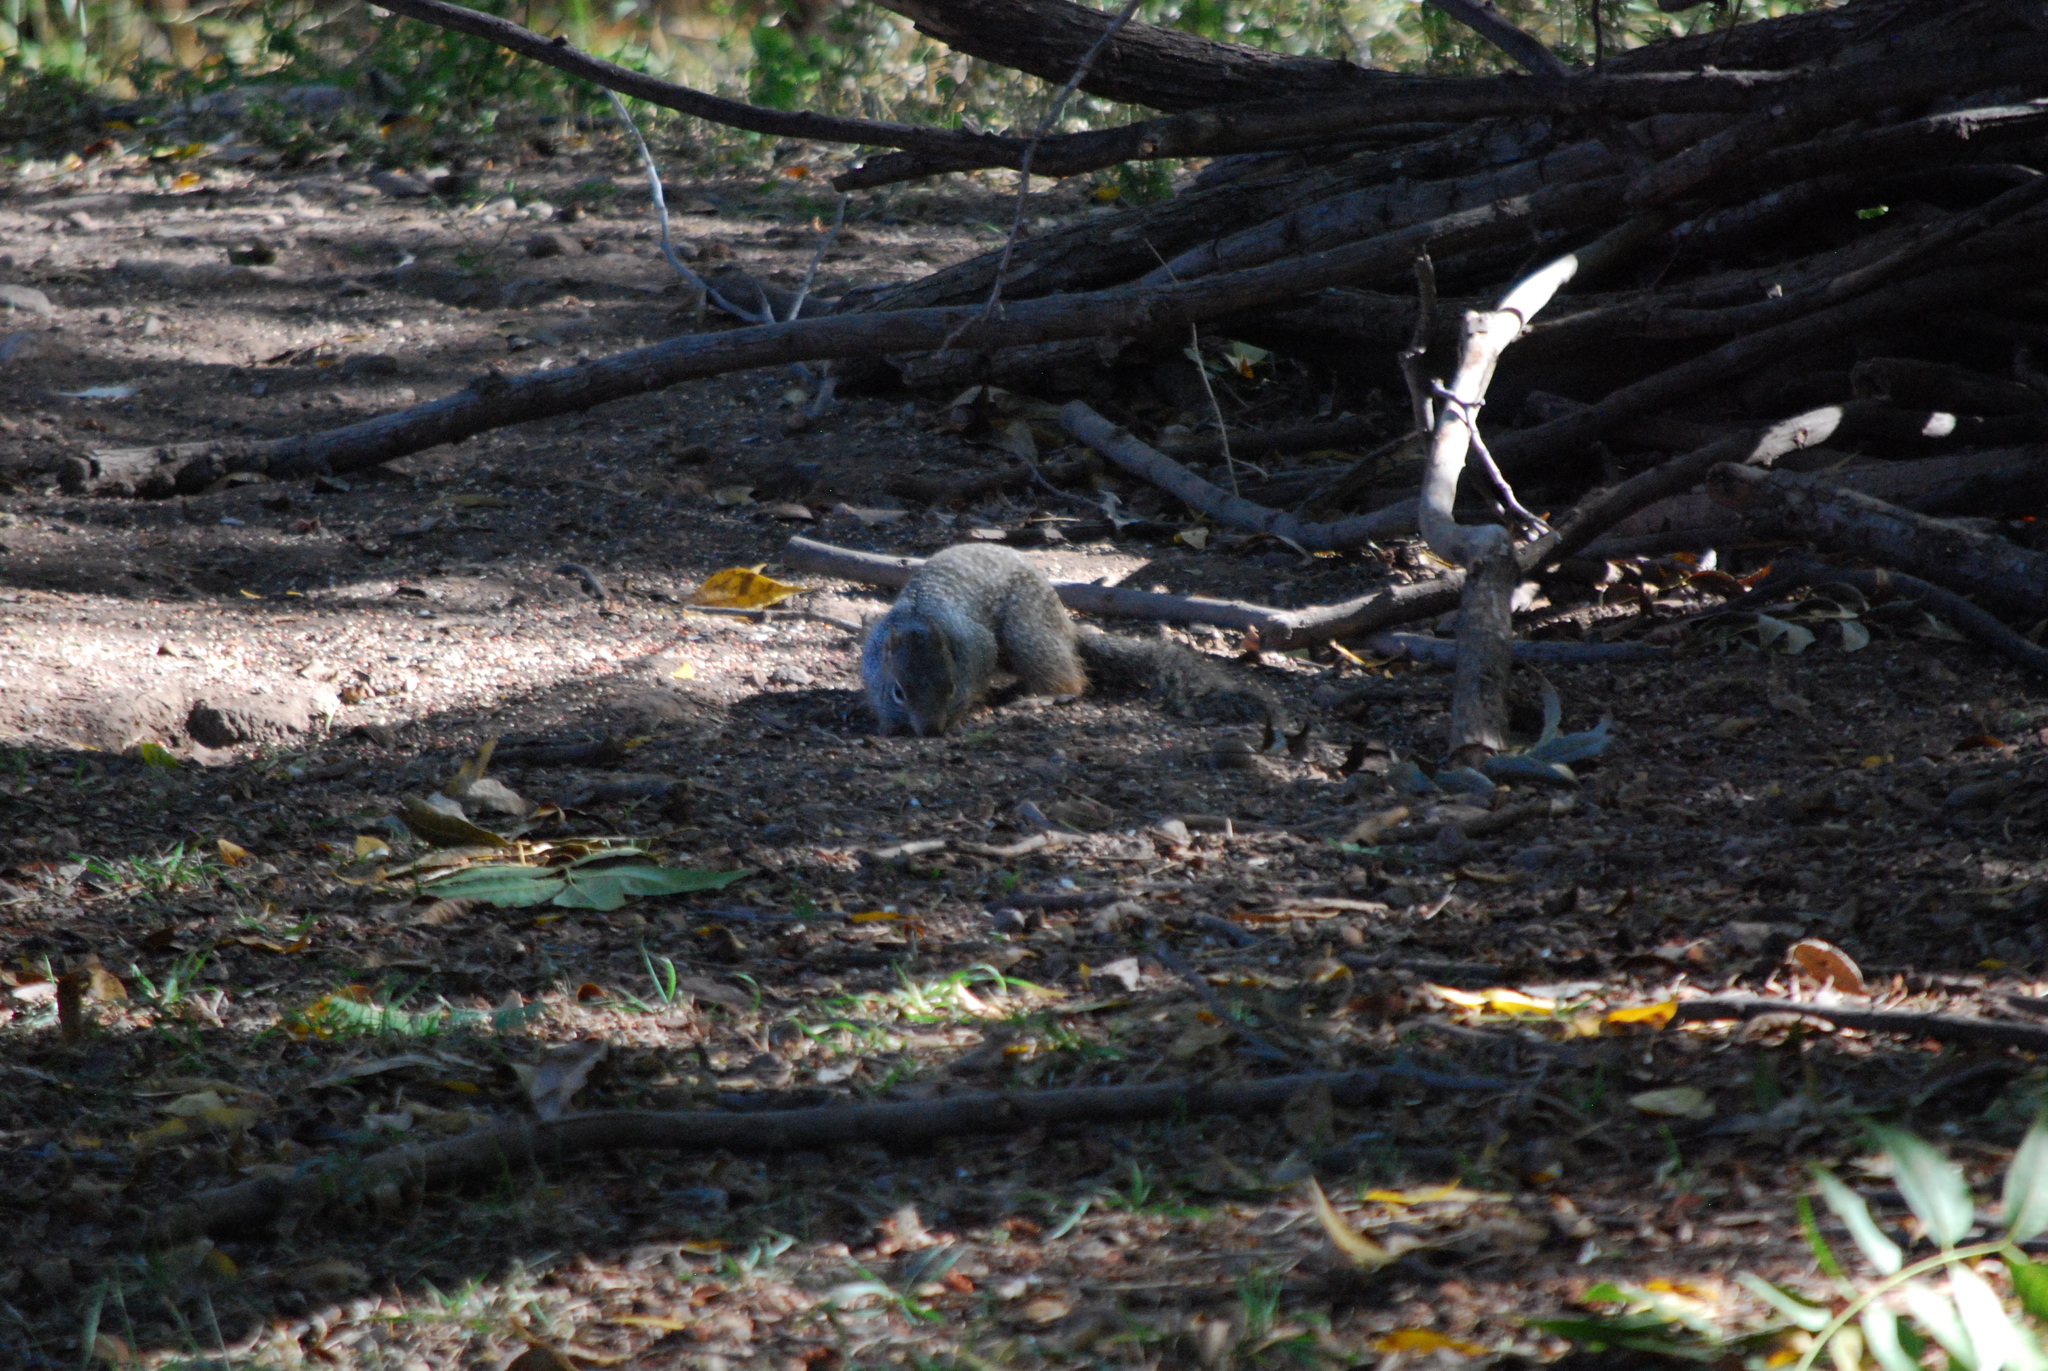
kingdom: Animalia
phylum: Chordata
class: Mammalia
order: Rodentia
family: Sciuridae
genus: Otospermophilus
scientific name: Otospermophilus variegatus
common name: Rock squirrel
